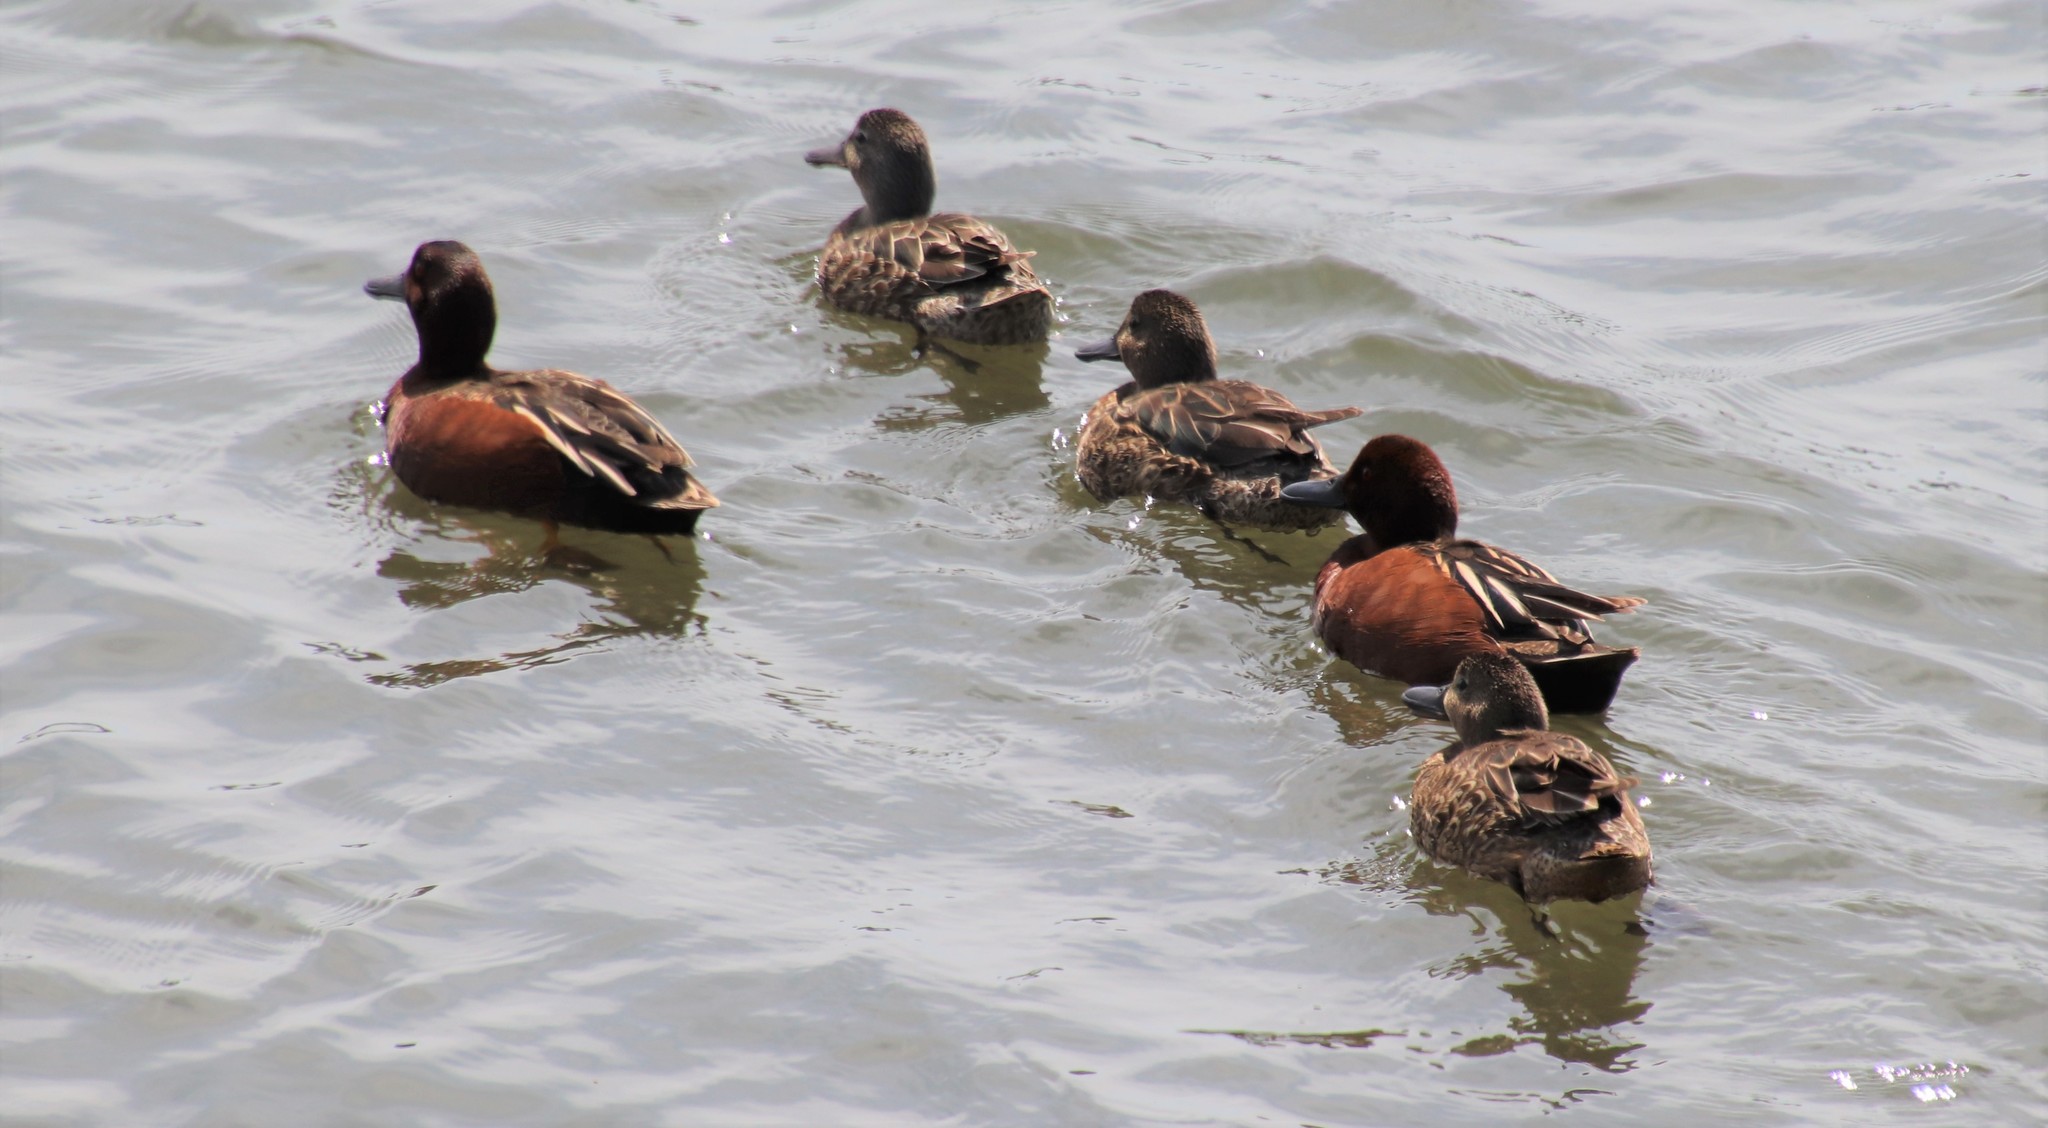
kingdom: Animalia
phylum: Chordata
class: Aves
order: Anseriformes
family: Anatidae
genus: Spatula
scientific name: Spatula cyanoptera
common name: Cinnamon teal
